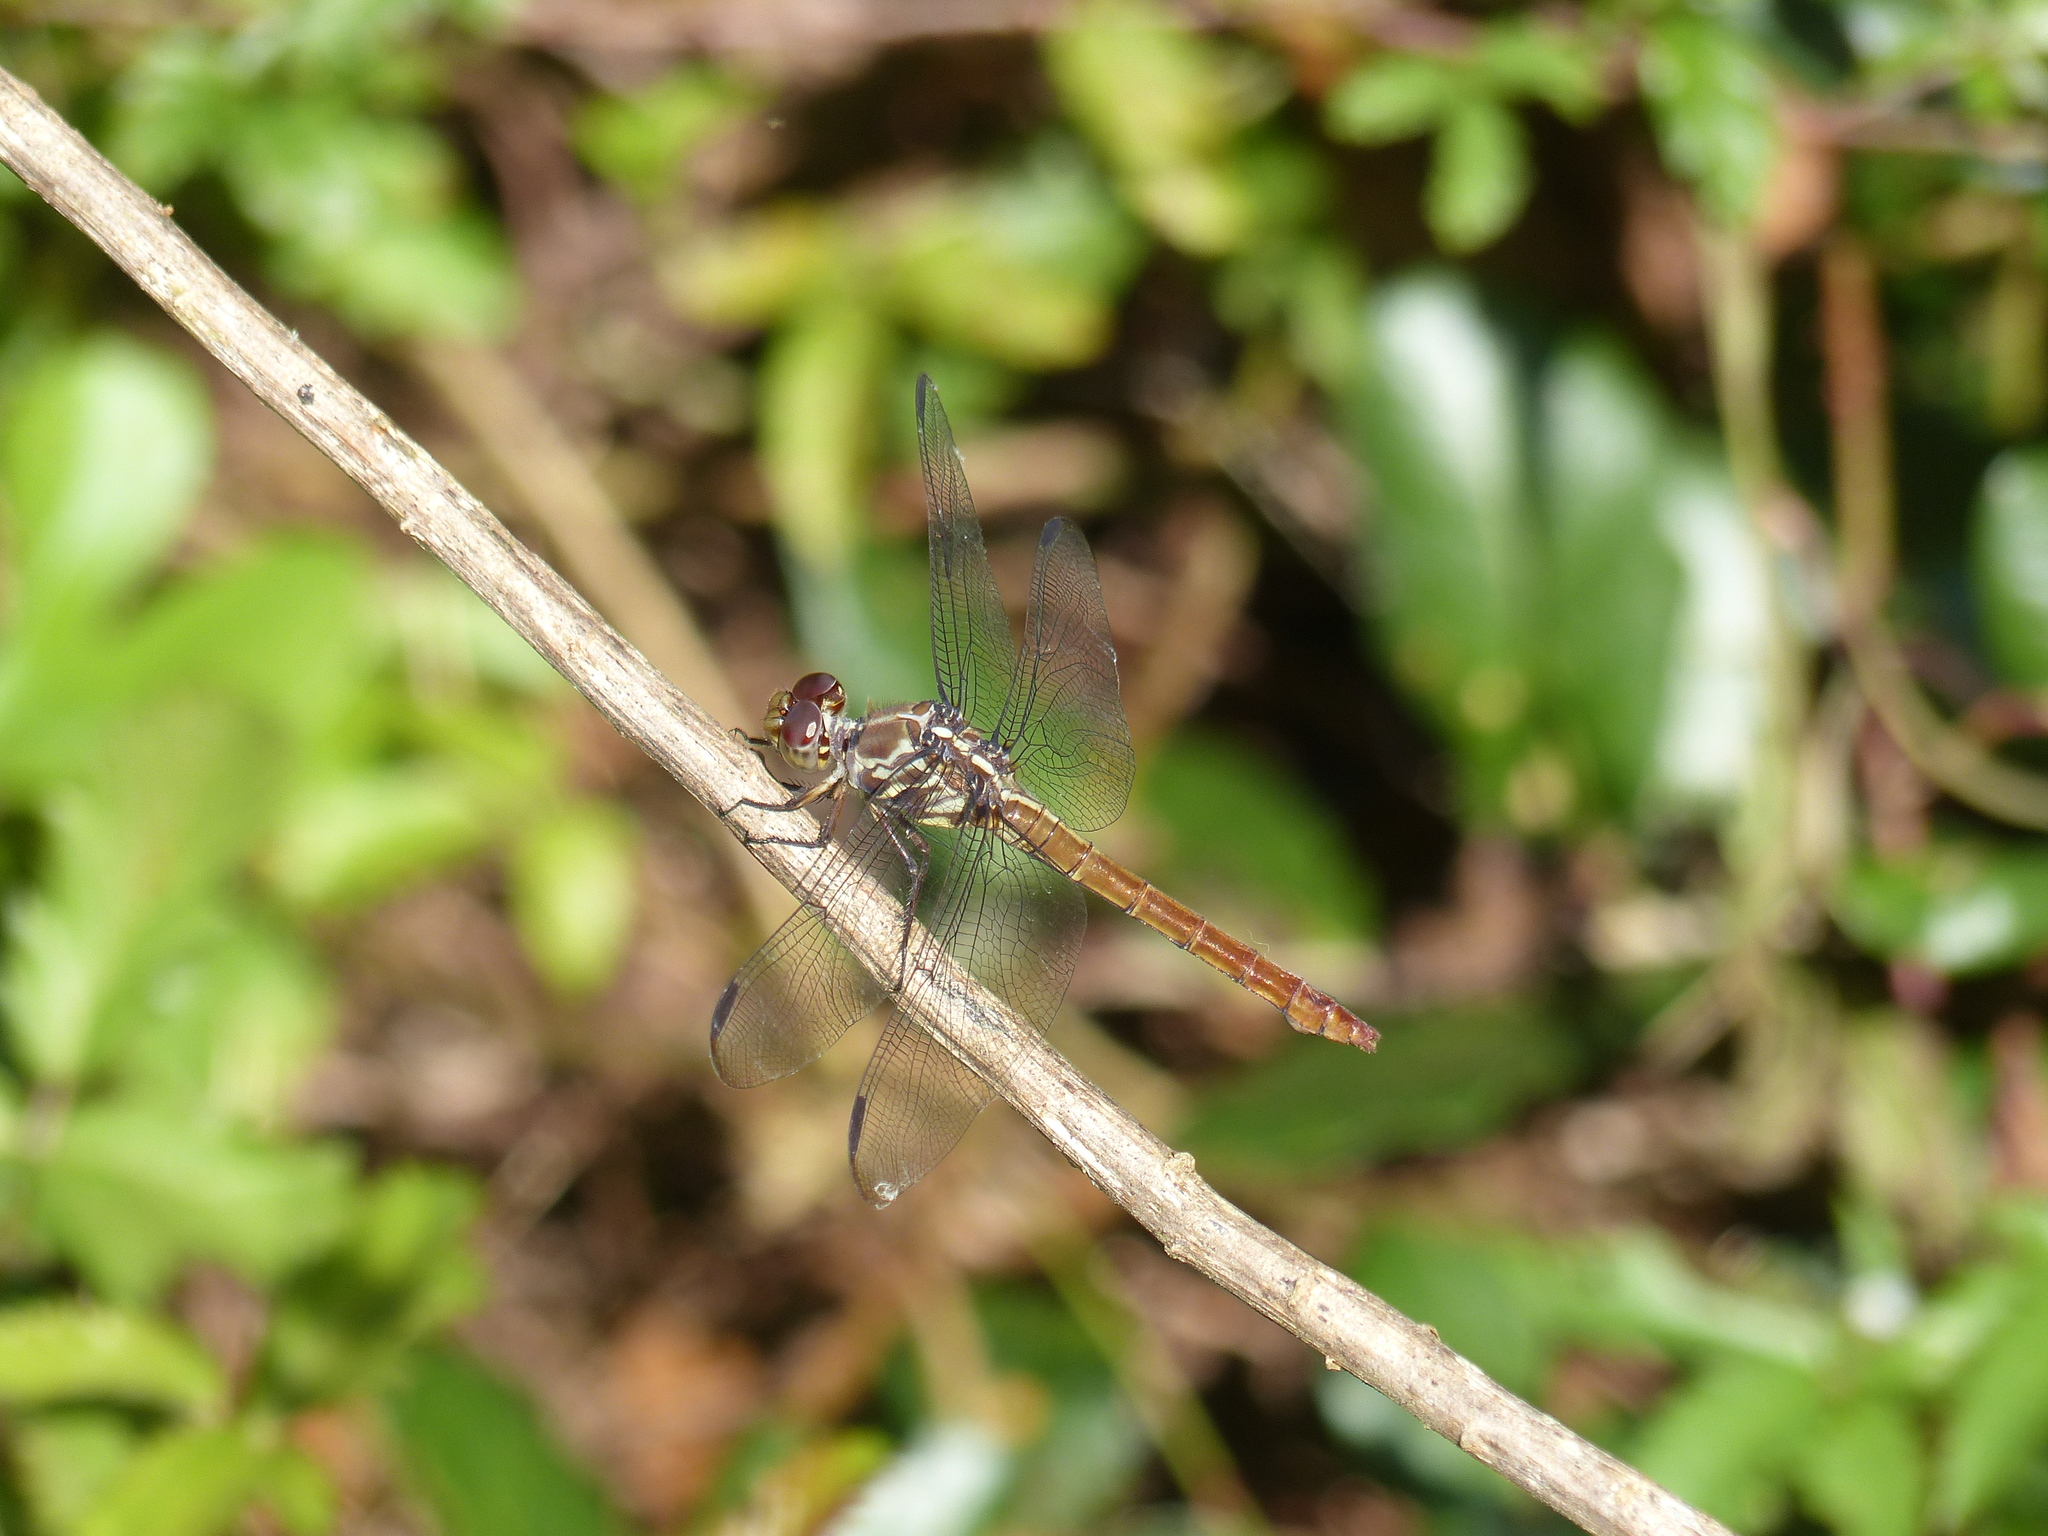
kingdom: Animalia
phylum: Arthropoda
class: Insecta
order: Odonata
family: Libellulidae
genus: Orthemis
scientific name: Orthemis ferruginea
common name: Roseate skimmer
